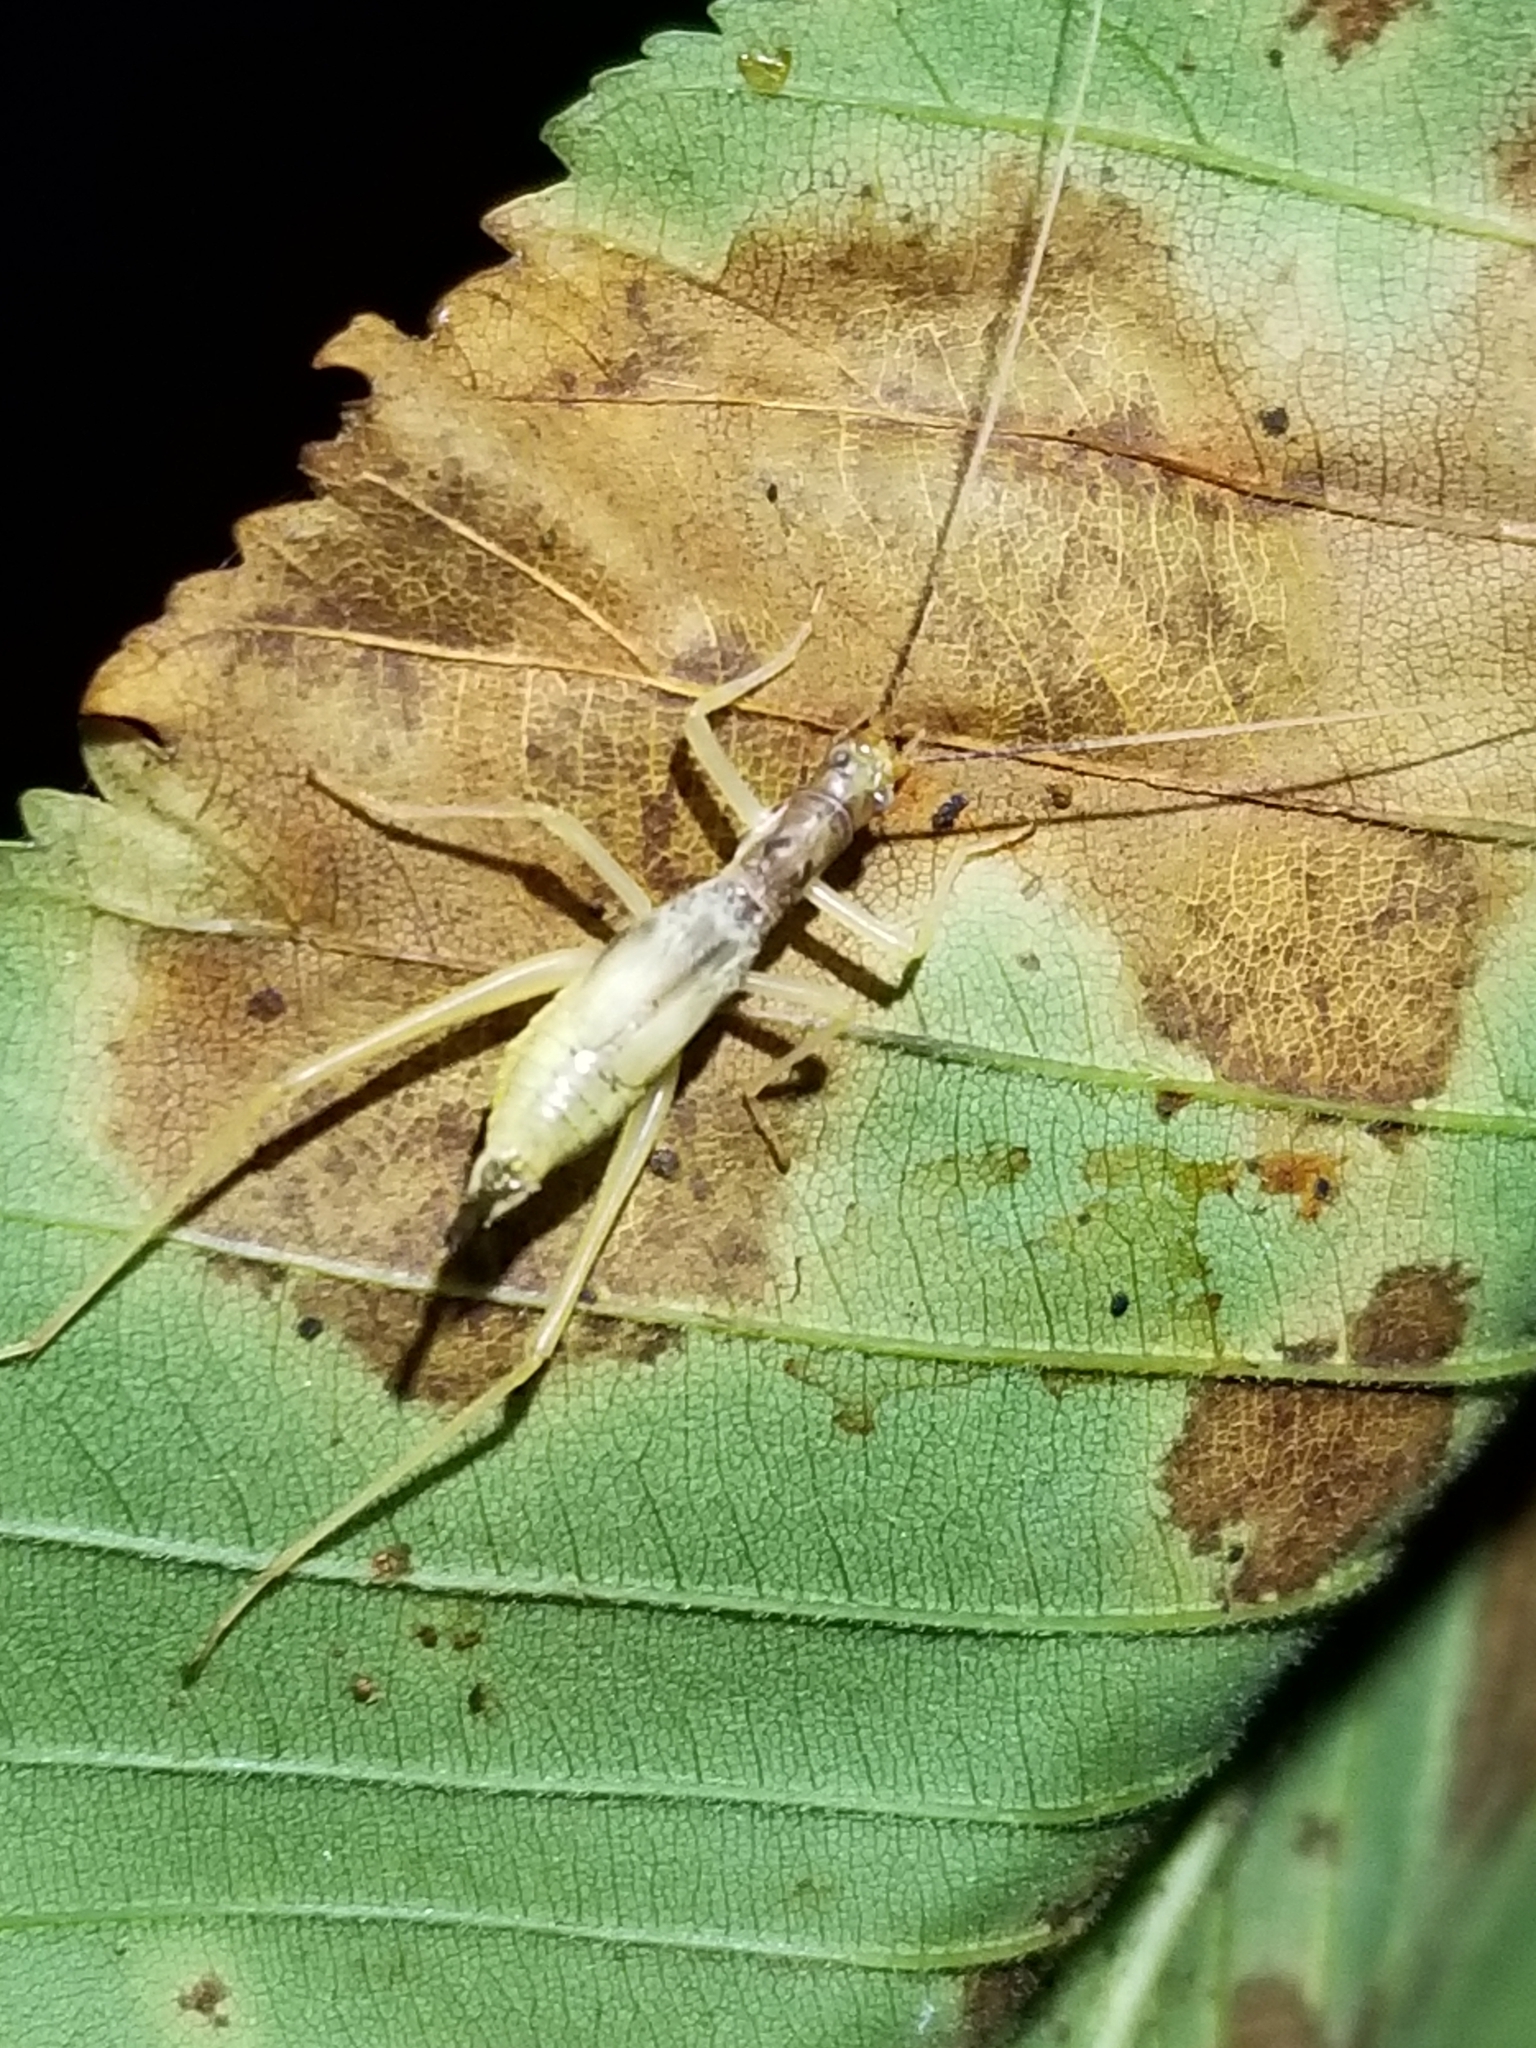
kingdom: Animalia
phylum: Arthropoda
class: Insecta
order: Orthoptera
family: Gryllidae
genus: Neoxabea
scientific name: Neoxabea bipunctata
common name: Two-spotted tree cricket
